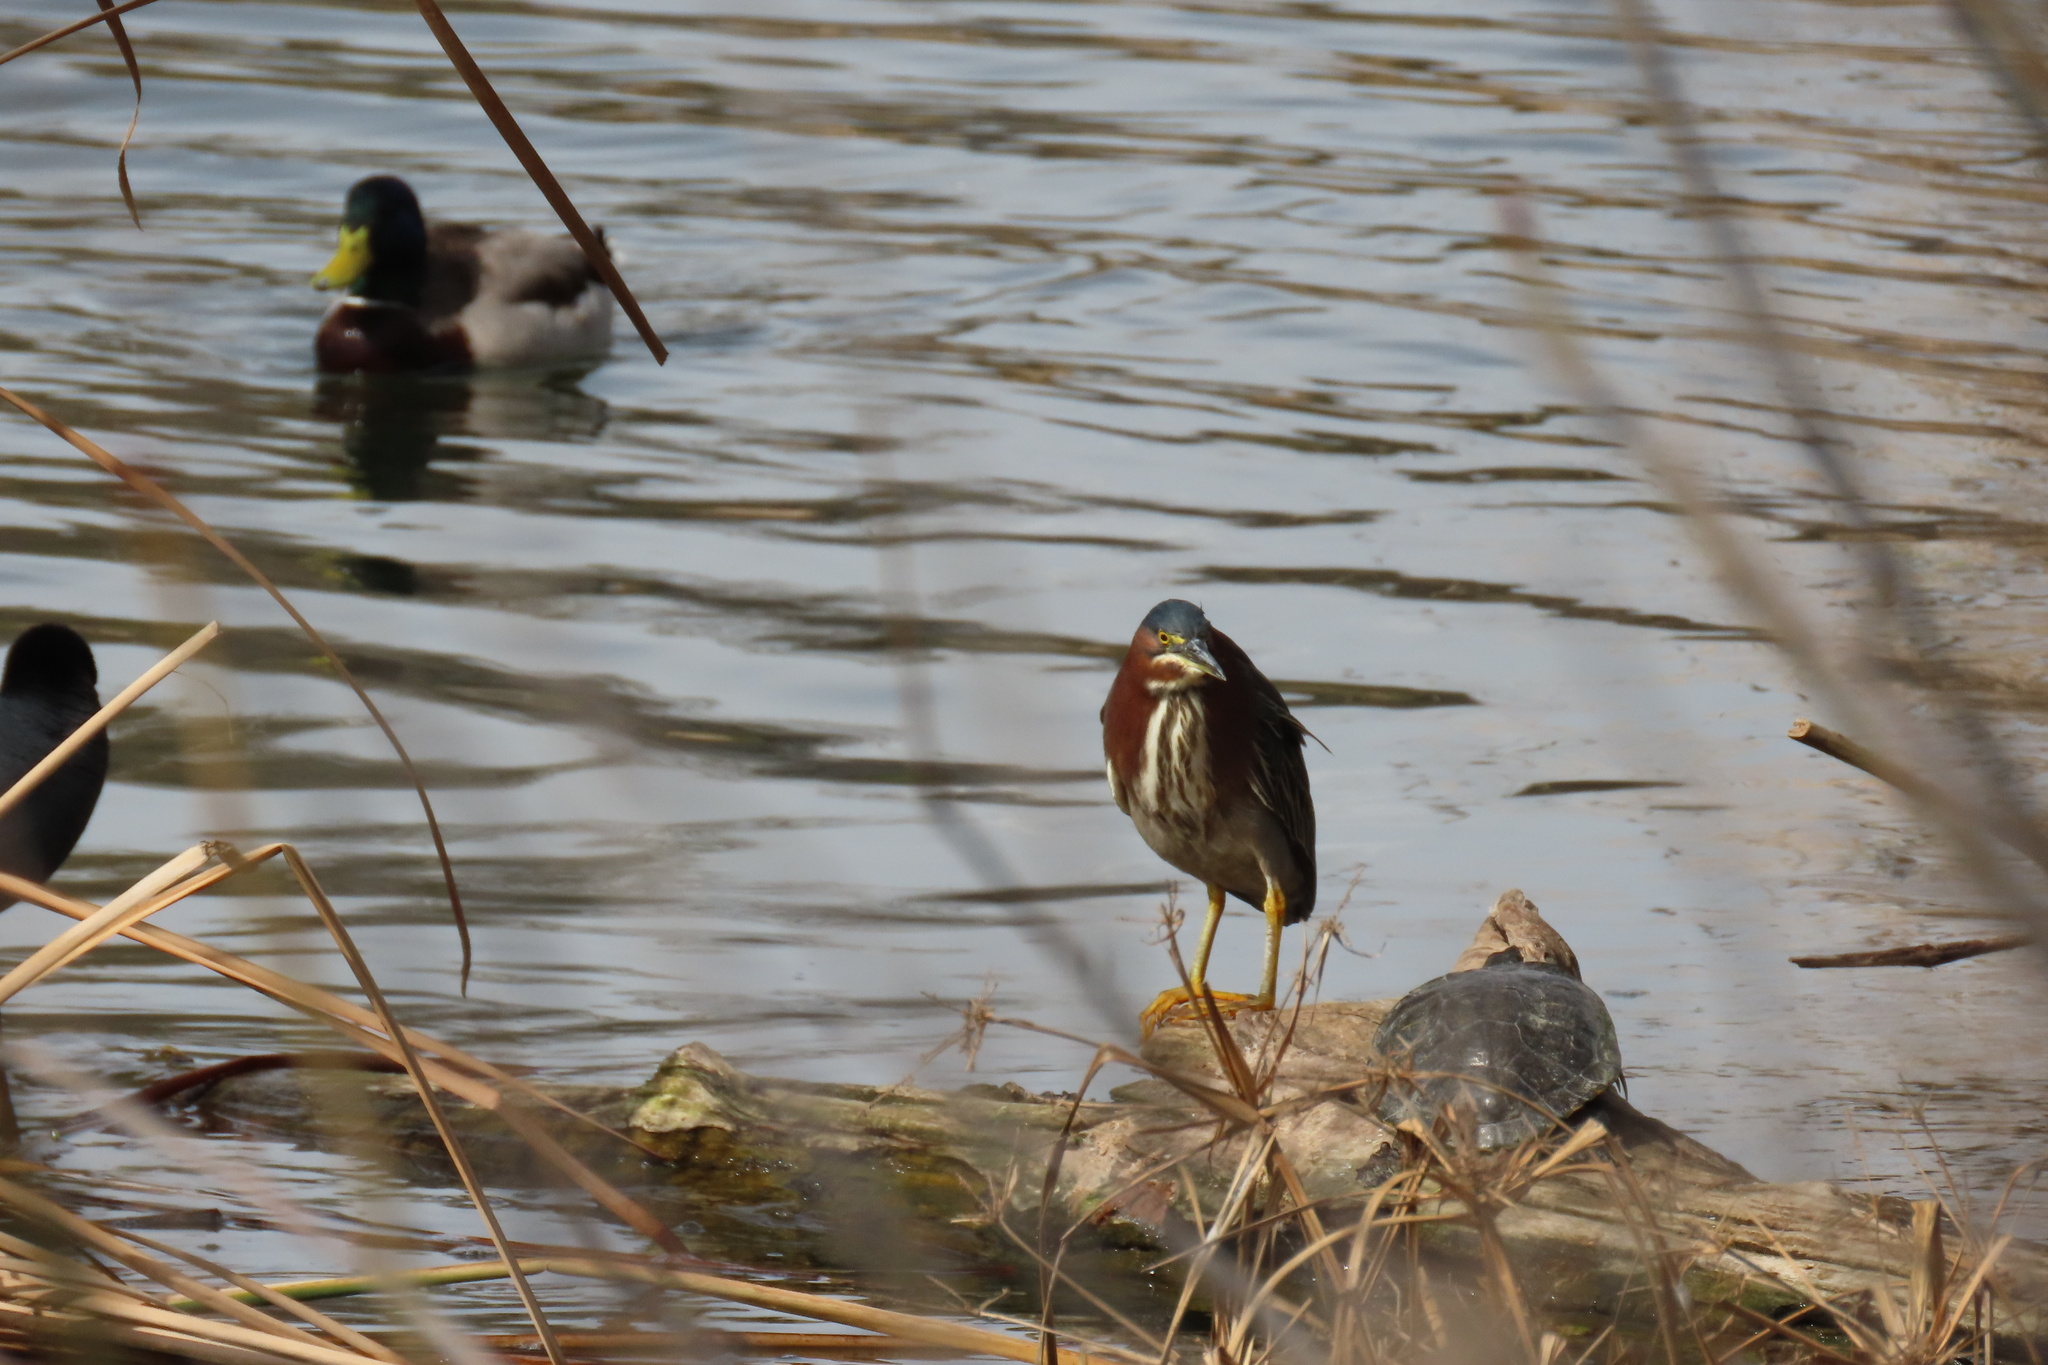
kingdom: Animalia
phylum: Chordata
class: Aves
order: Pelecaniformes
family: Ardeidae
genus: Butorides
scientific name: Butorides virescens
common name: Green heron
